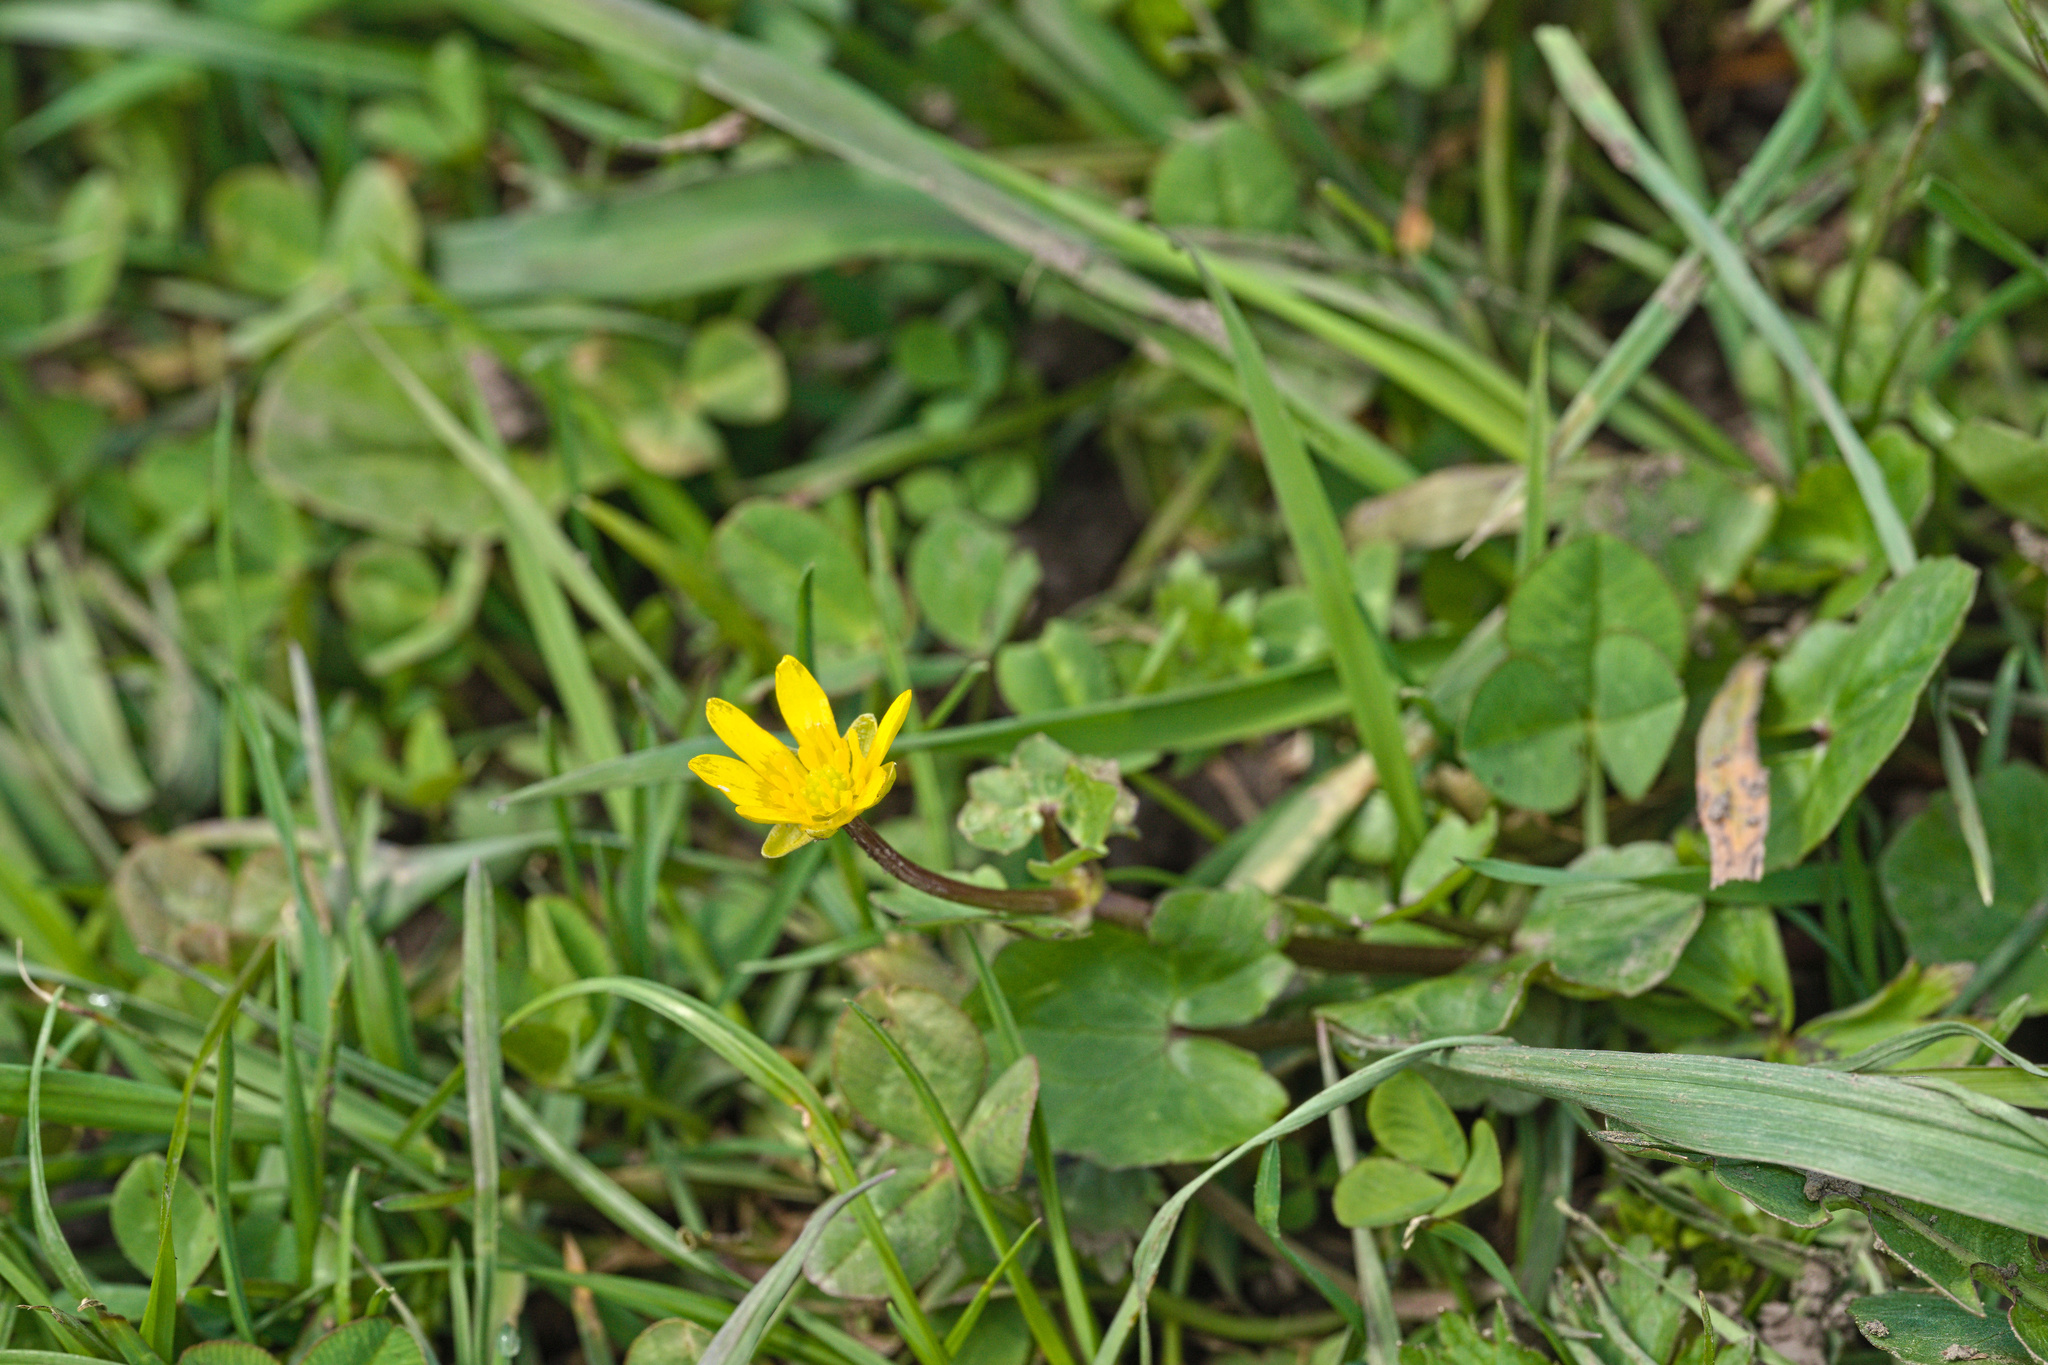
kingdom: Plantae
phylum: Tracheophyta
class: Magnoliopsida
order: Ranunculales
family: Ranunculaceae
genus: Ficaria
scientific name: Ficaria verna
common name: Lesser celandine
